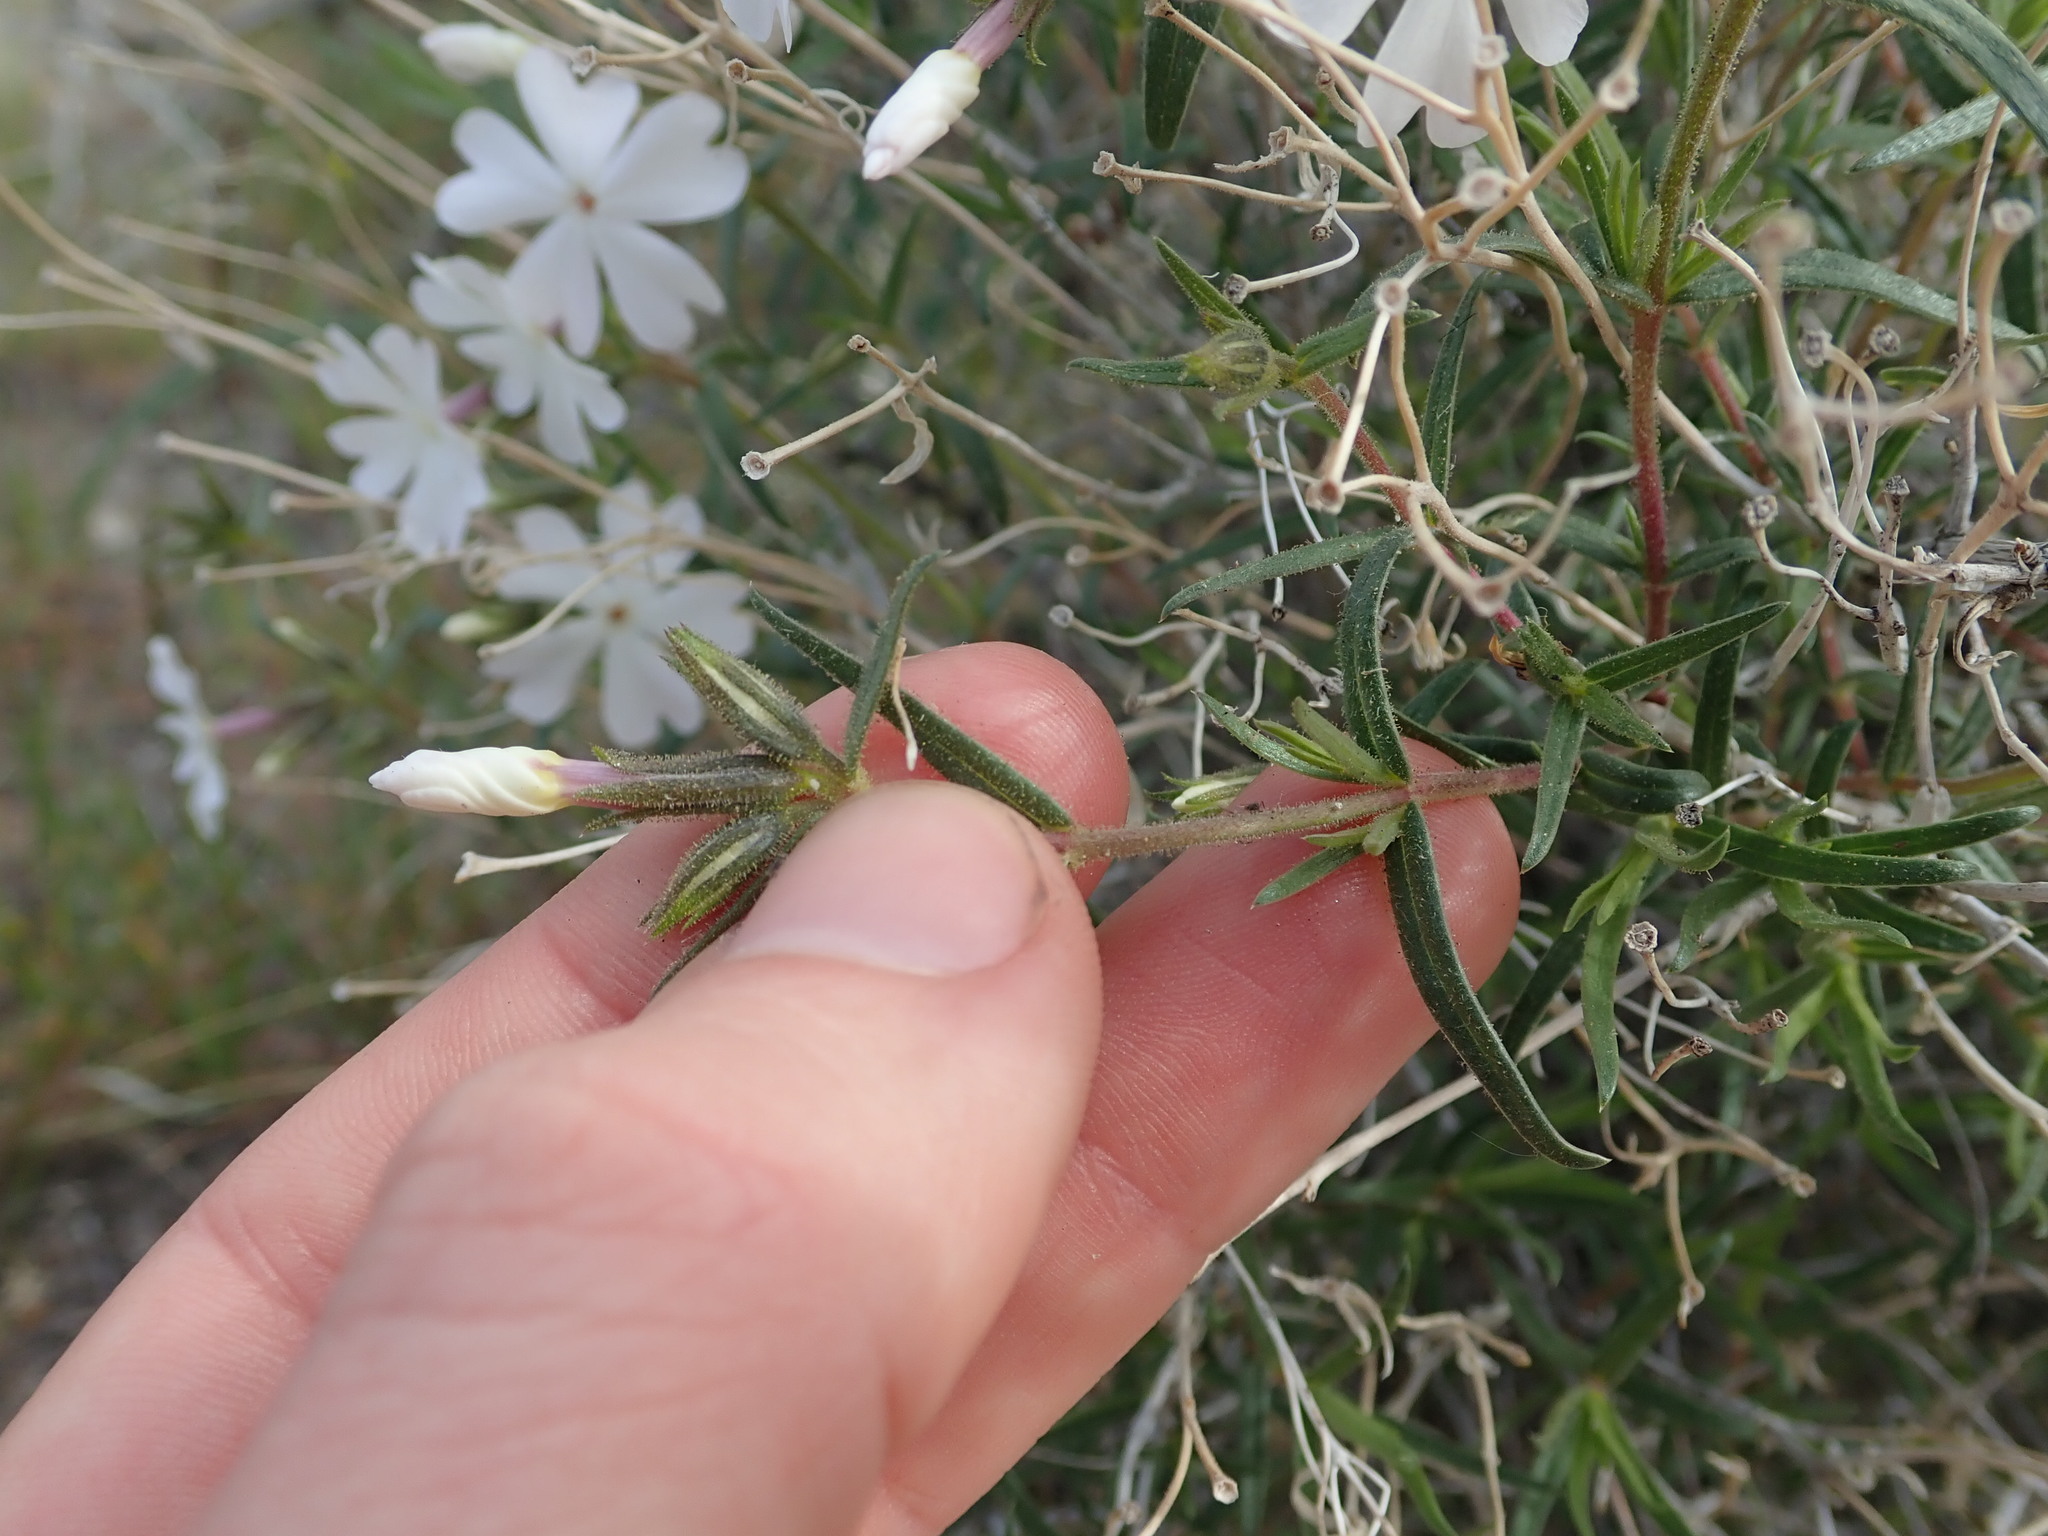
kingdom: Plantae
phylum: Tracheophyta
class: Magnoliopsida
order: Ericales
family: Polemoniaceae
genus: Phlox
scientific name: Phlox speciosa
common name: Bush phlox
